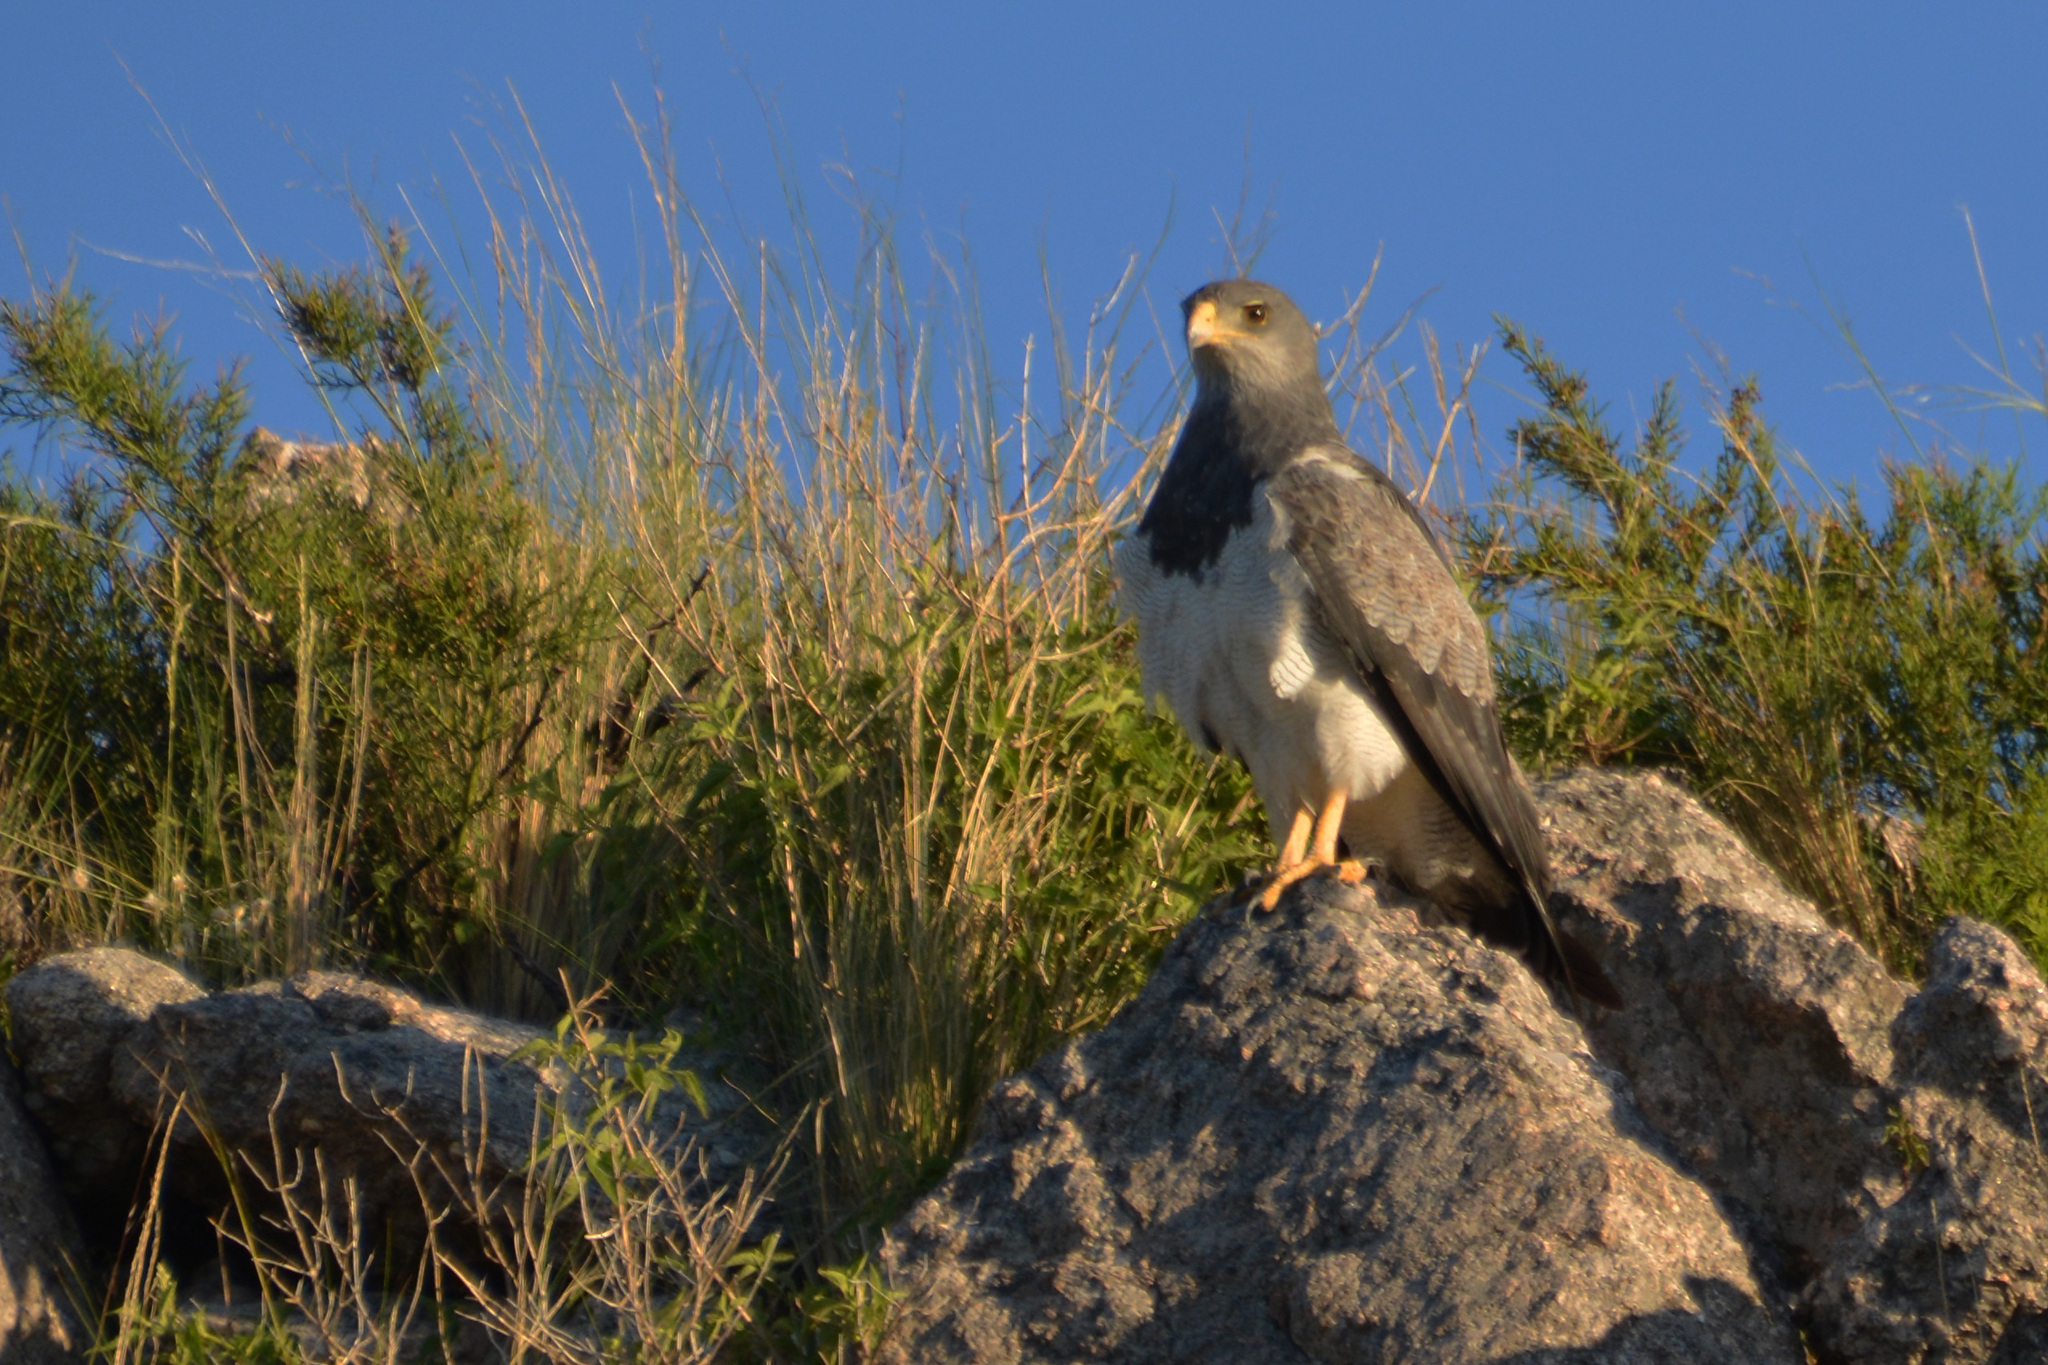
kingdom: Animalia
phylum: Chordata
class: Aves
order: Accipitriformes
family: Accipitridae
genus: Geranoaetus
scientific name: Geranoaetus melanoleucus
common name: Black-chested buzzard-eagle
